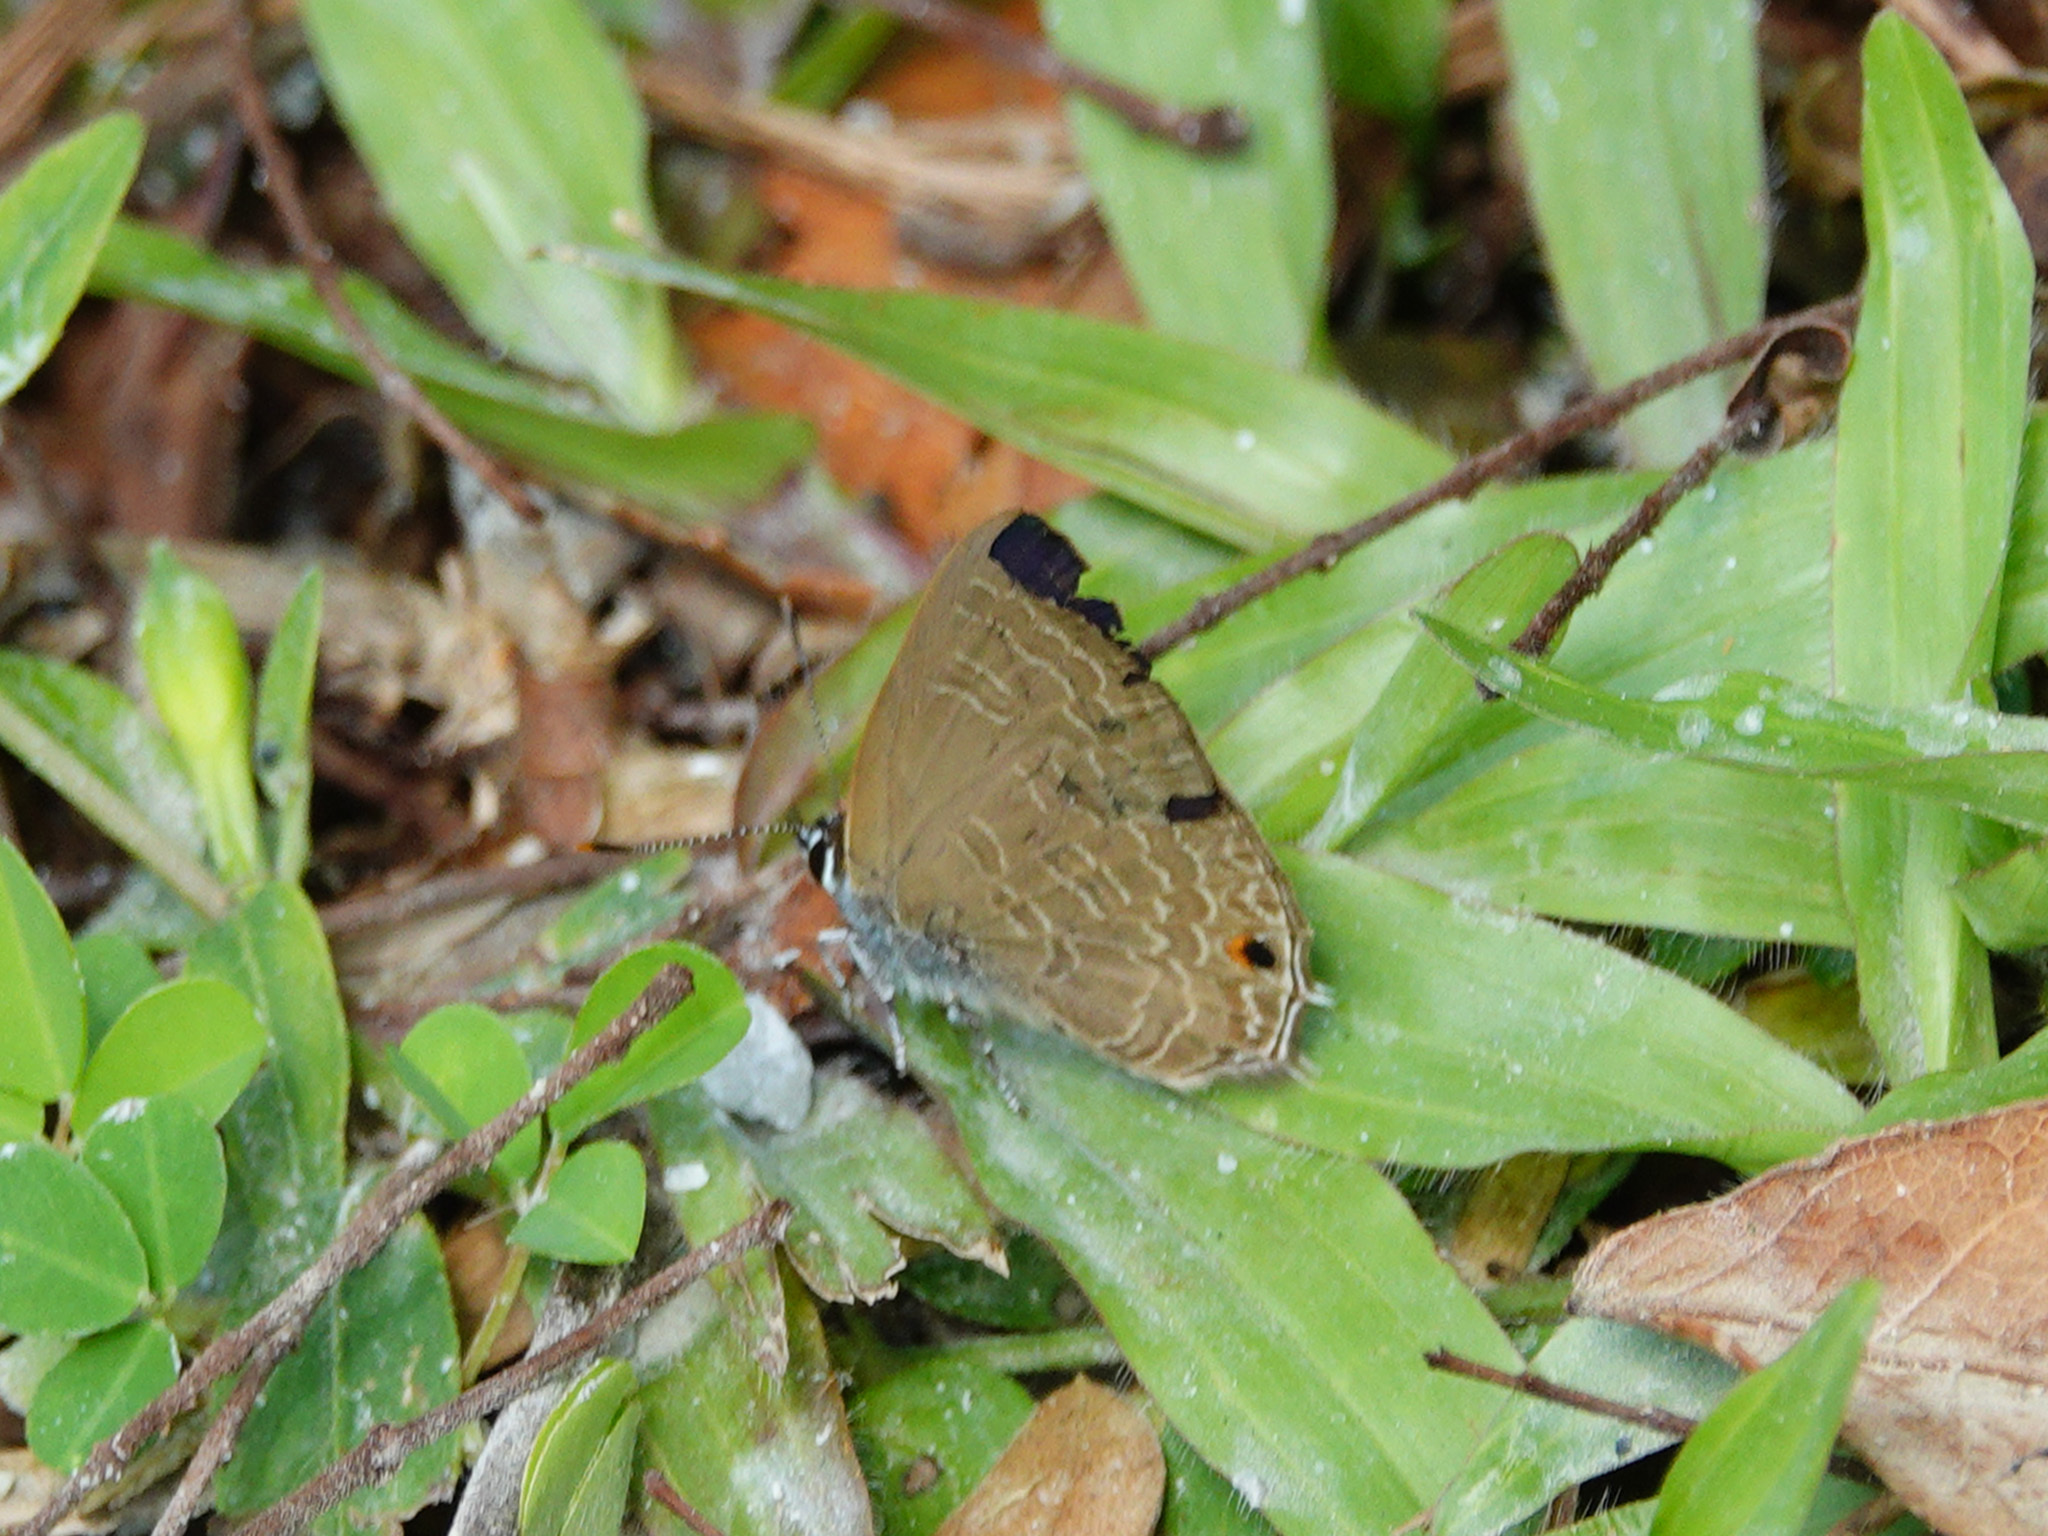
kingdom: Animalia
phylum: Arthropoda
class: Insecta
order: Lepidoptera
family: Lycaenidae
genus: Anthene
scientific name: Anthene emolus
